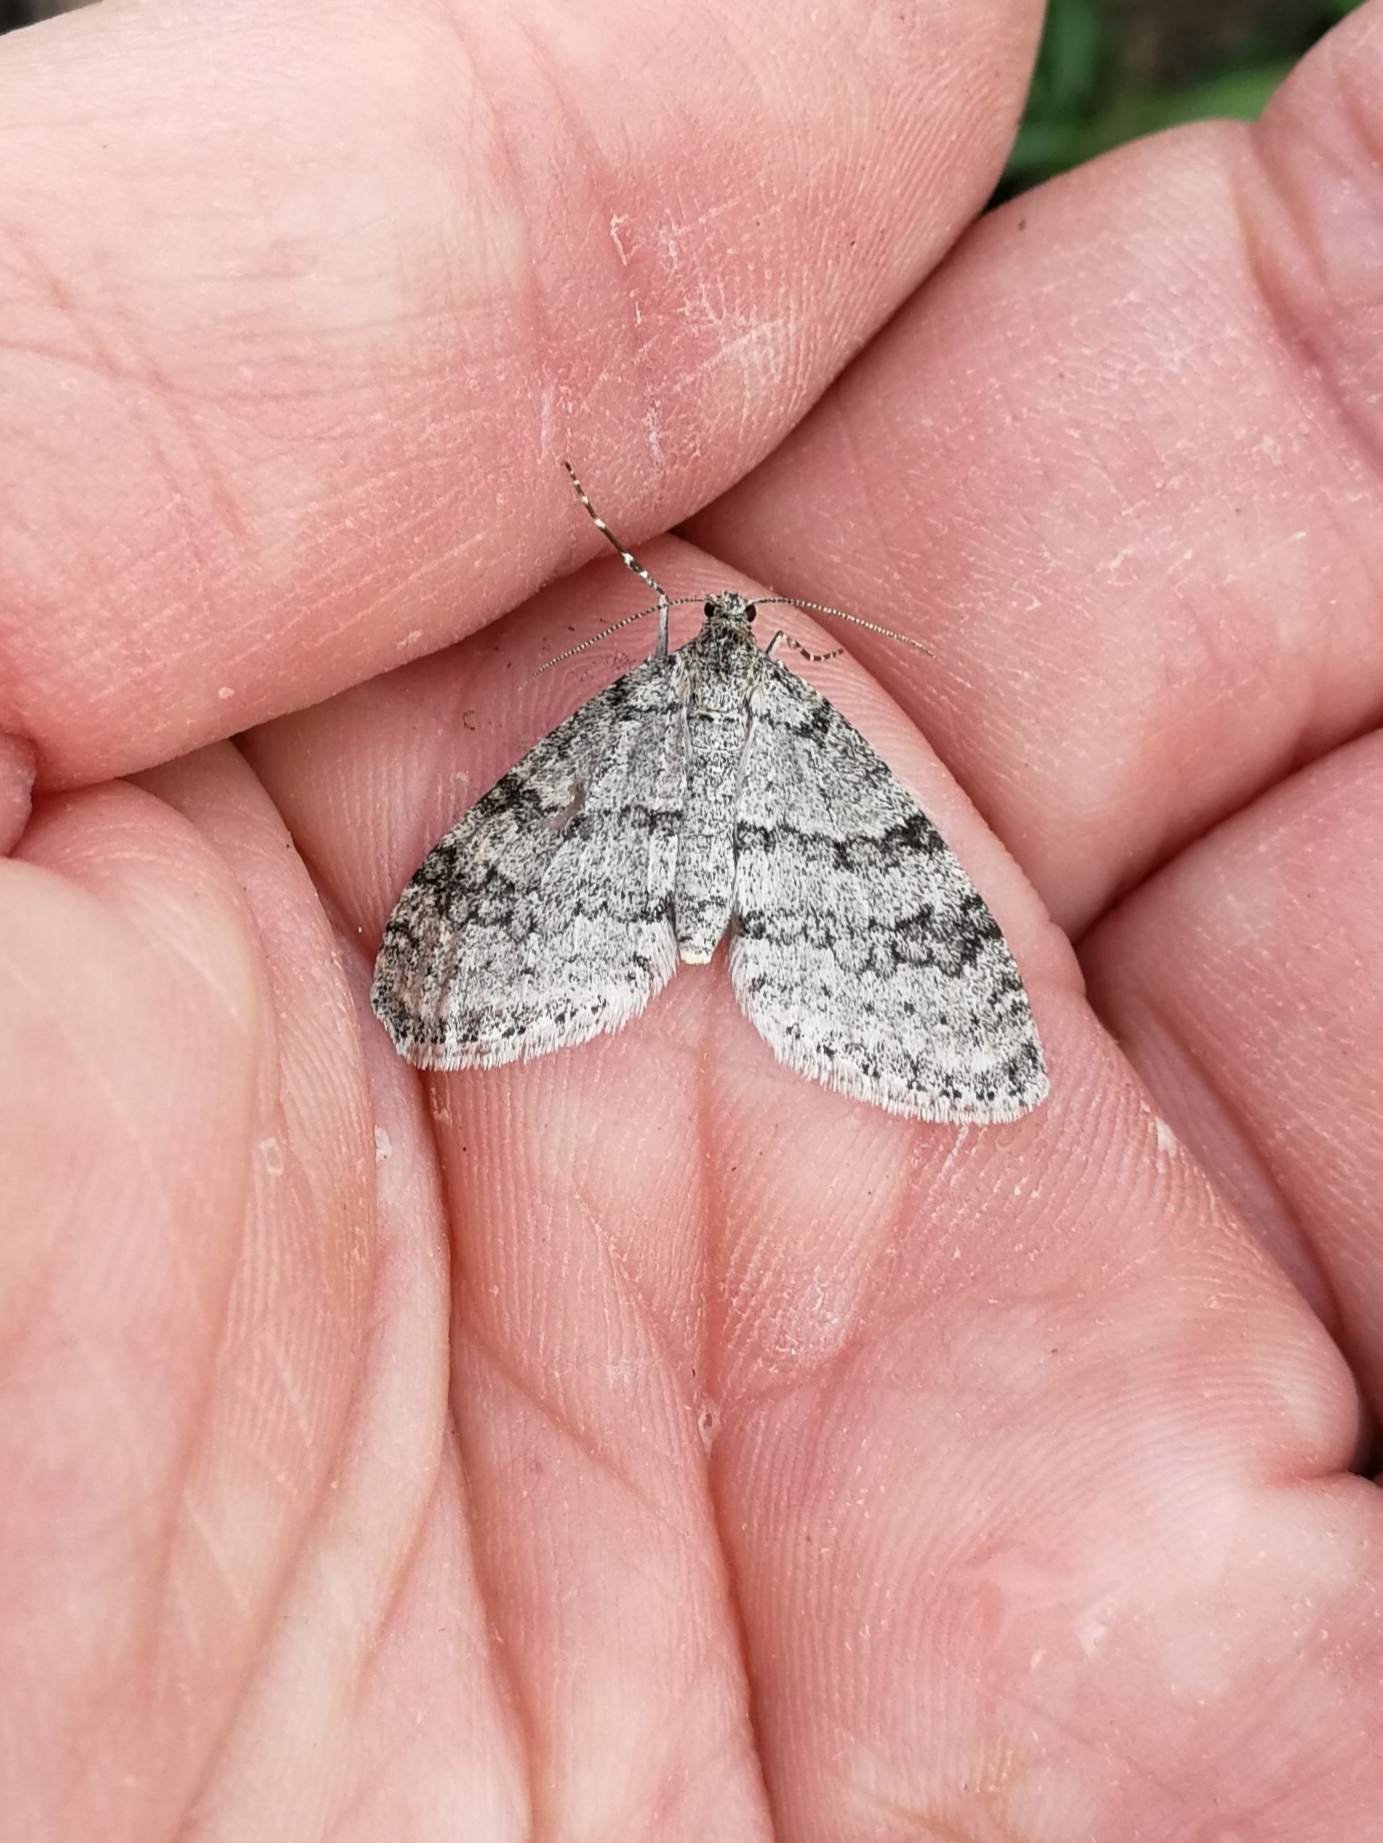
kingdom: Animalia
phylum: Arthropoda
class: Insecta
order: Lepidoptera
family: Geometridae
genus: Trichopteryx
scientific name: Trichopteryx carpinata
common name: Early tooth-striped
